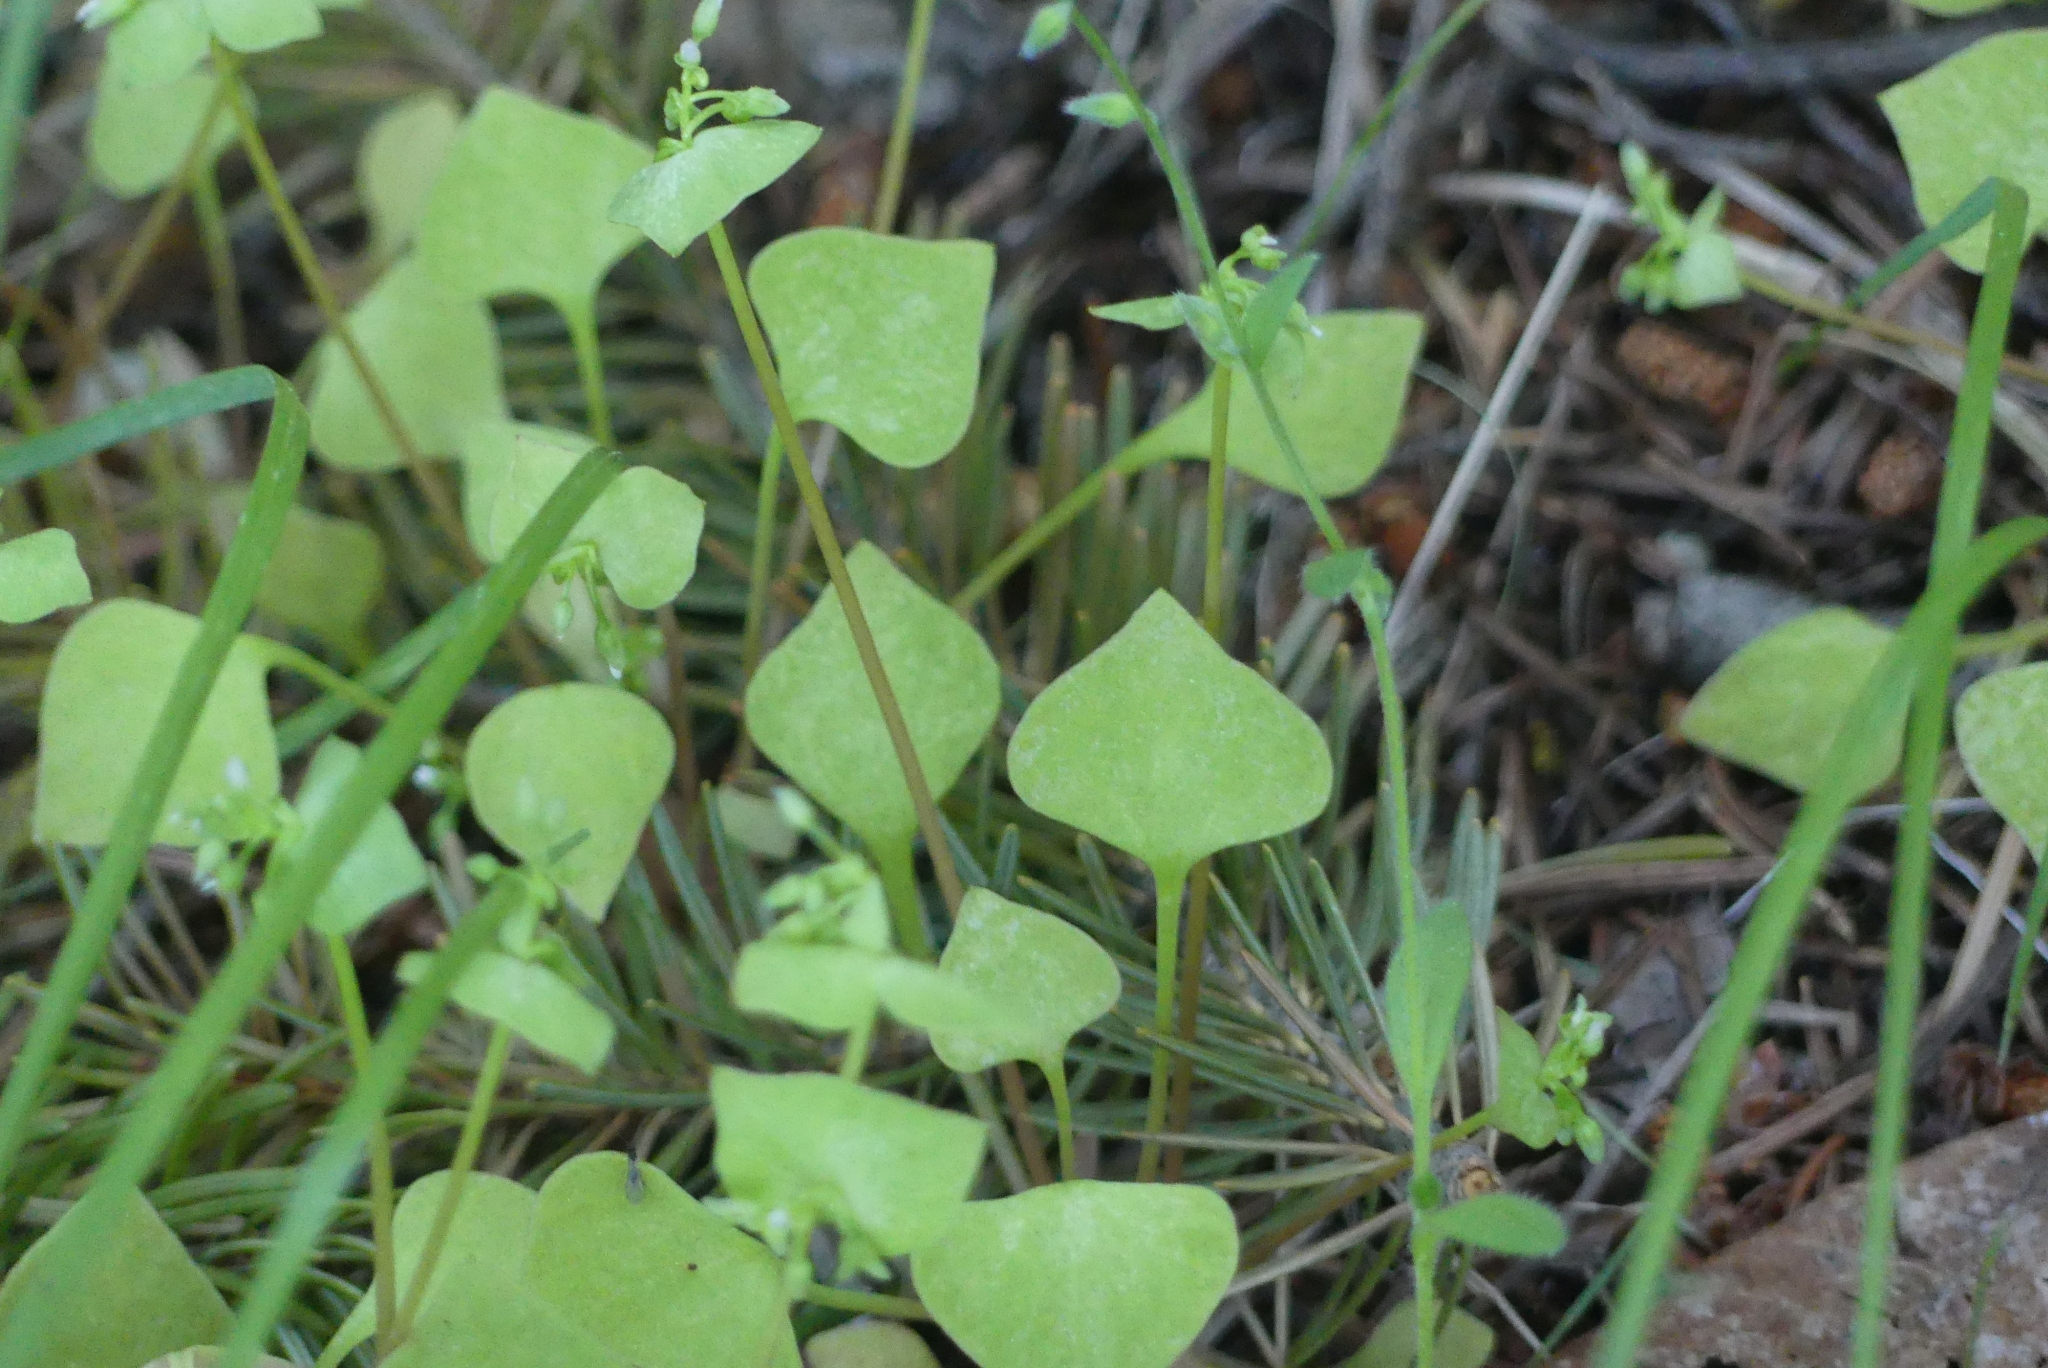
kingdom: Plantae
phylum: Tracheophyta
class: Magnoliopsida
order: Caryophyllales
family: Montiaceae
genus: Claytonia
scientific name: Claytonia perfoliata
